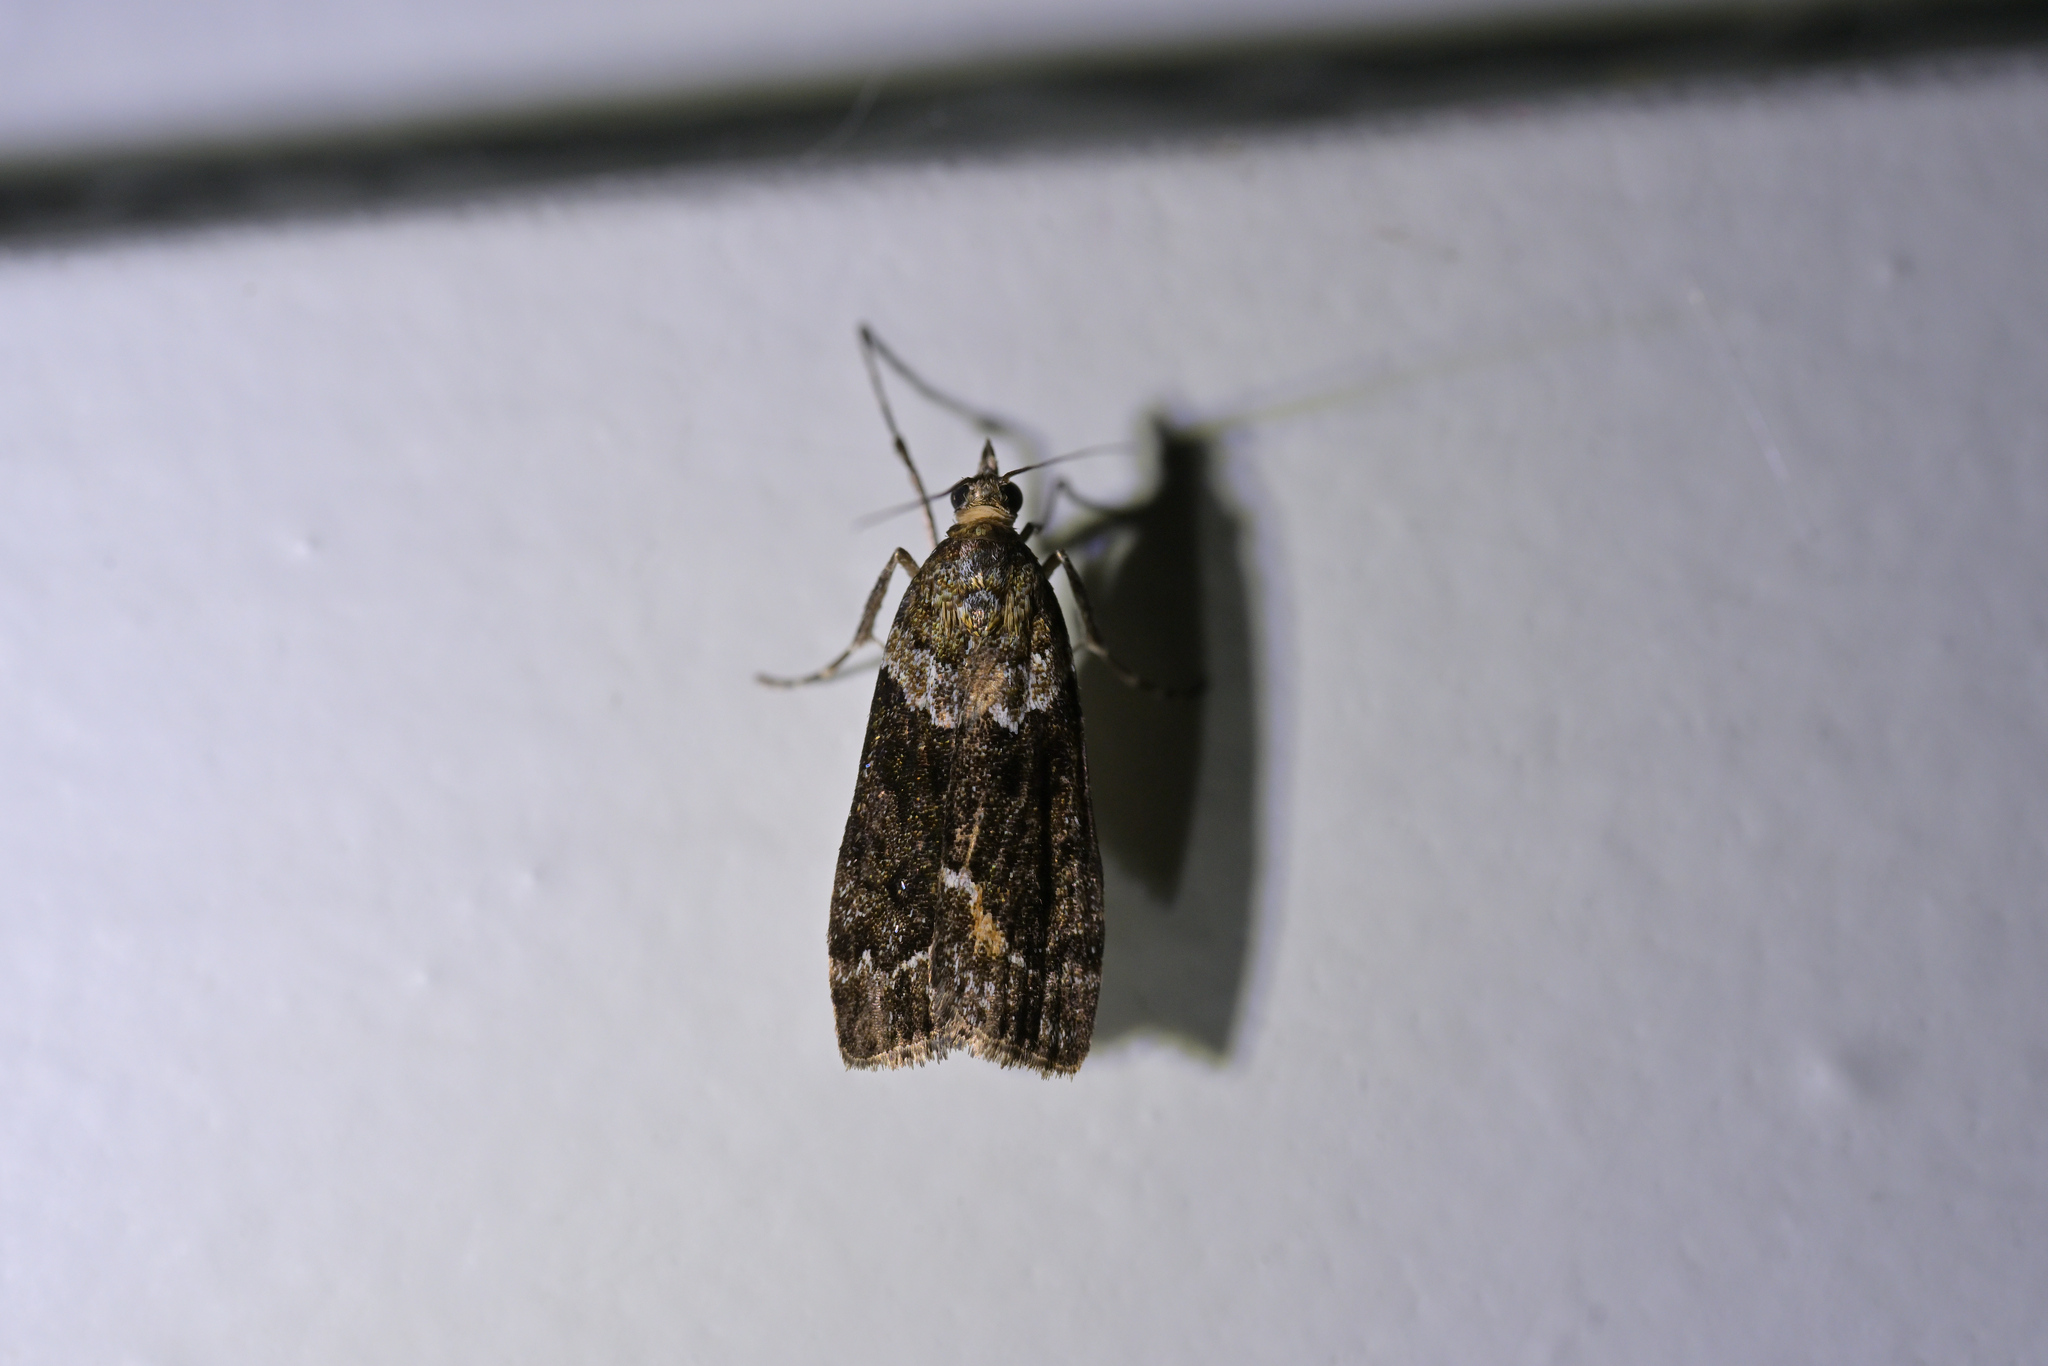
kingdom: Animalia
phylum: Arthropoda
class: Insecta
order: Lepidoptera
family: Crambidae
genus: Eudonia
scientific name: Eudonia submarginalis
